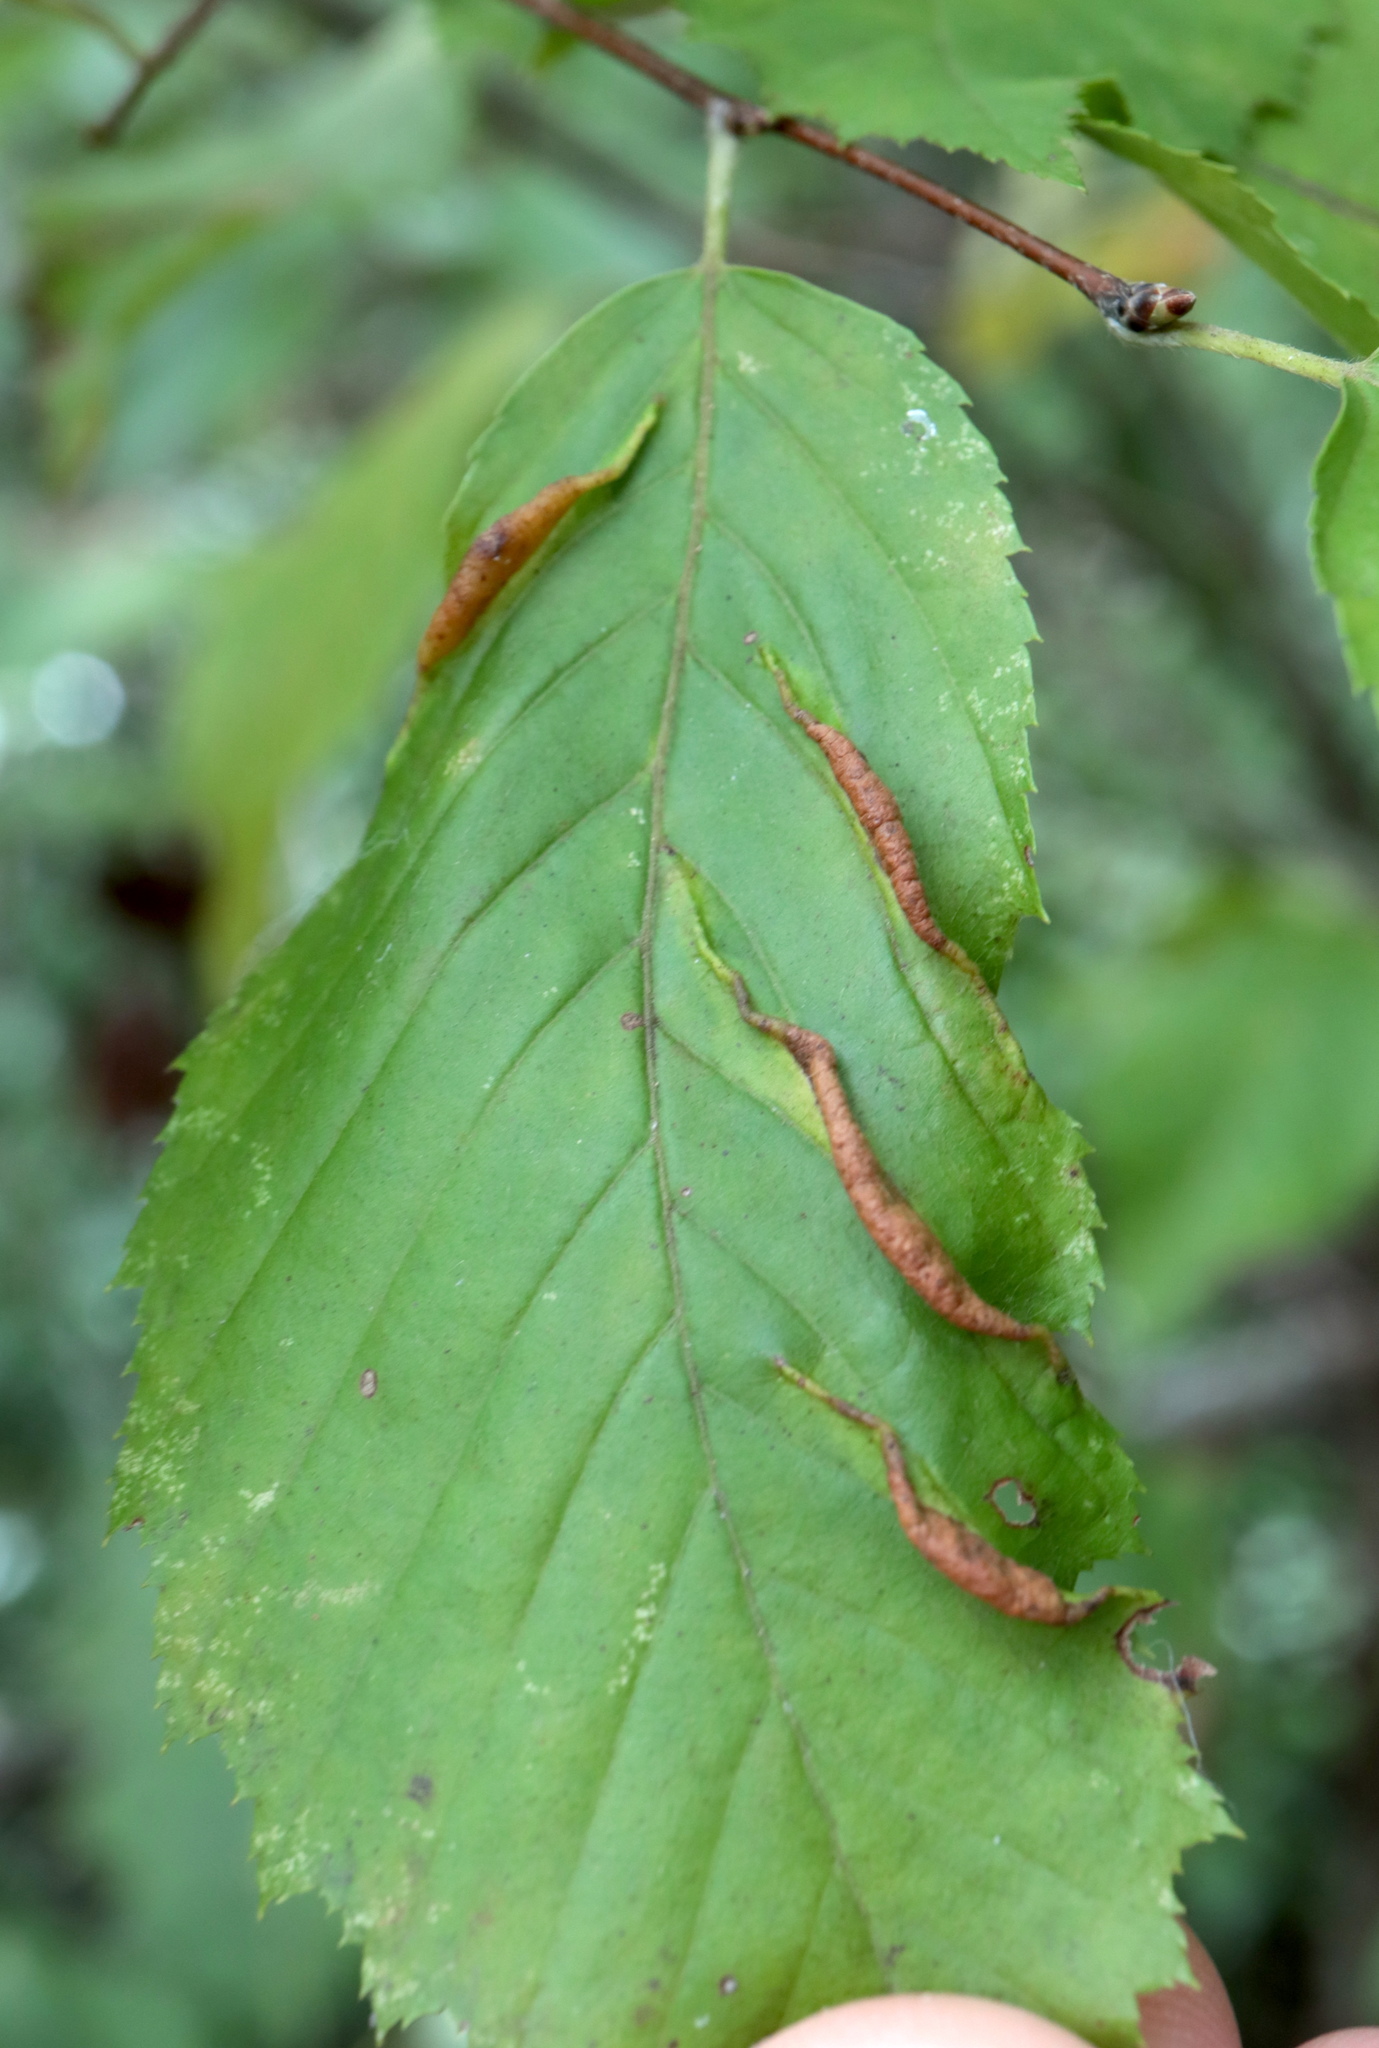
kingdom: Animalia
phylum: Arthropoda
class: Insecta
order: Diptera
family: Cecidomyiidae
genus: Dasineura
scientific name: Dasineura pudibunda
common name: Hornbeam leaf gall midge
